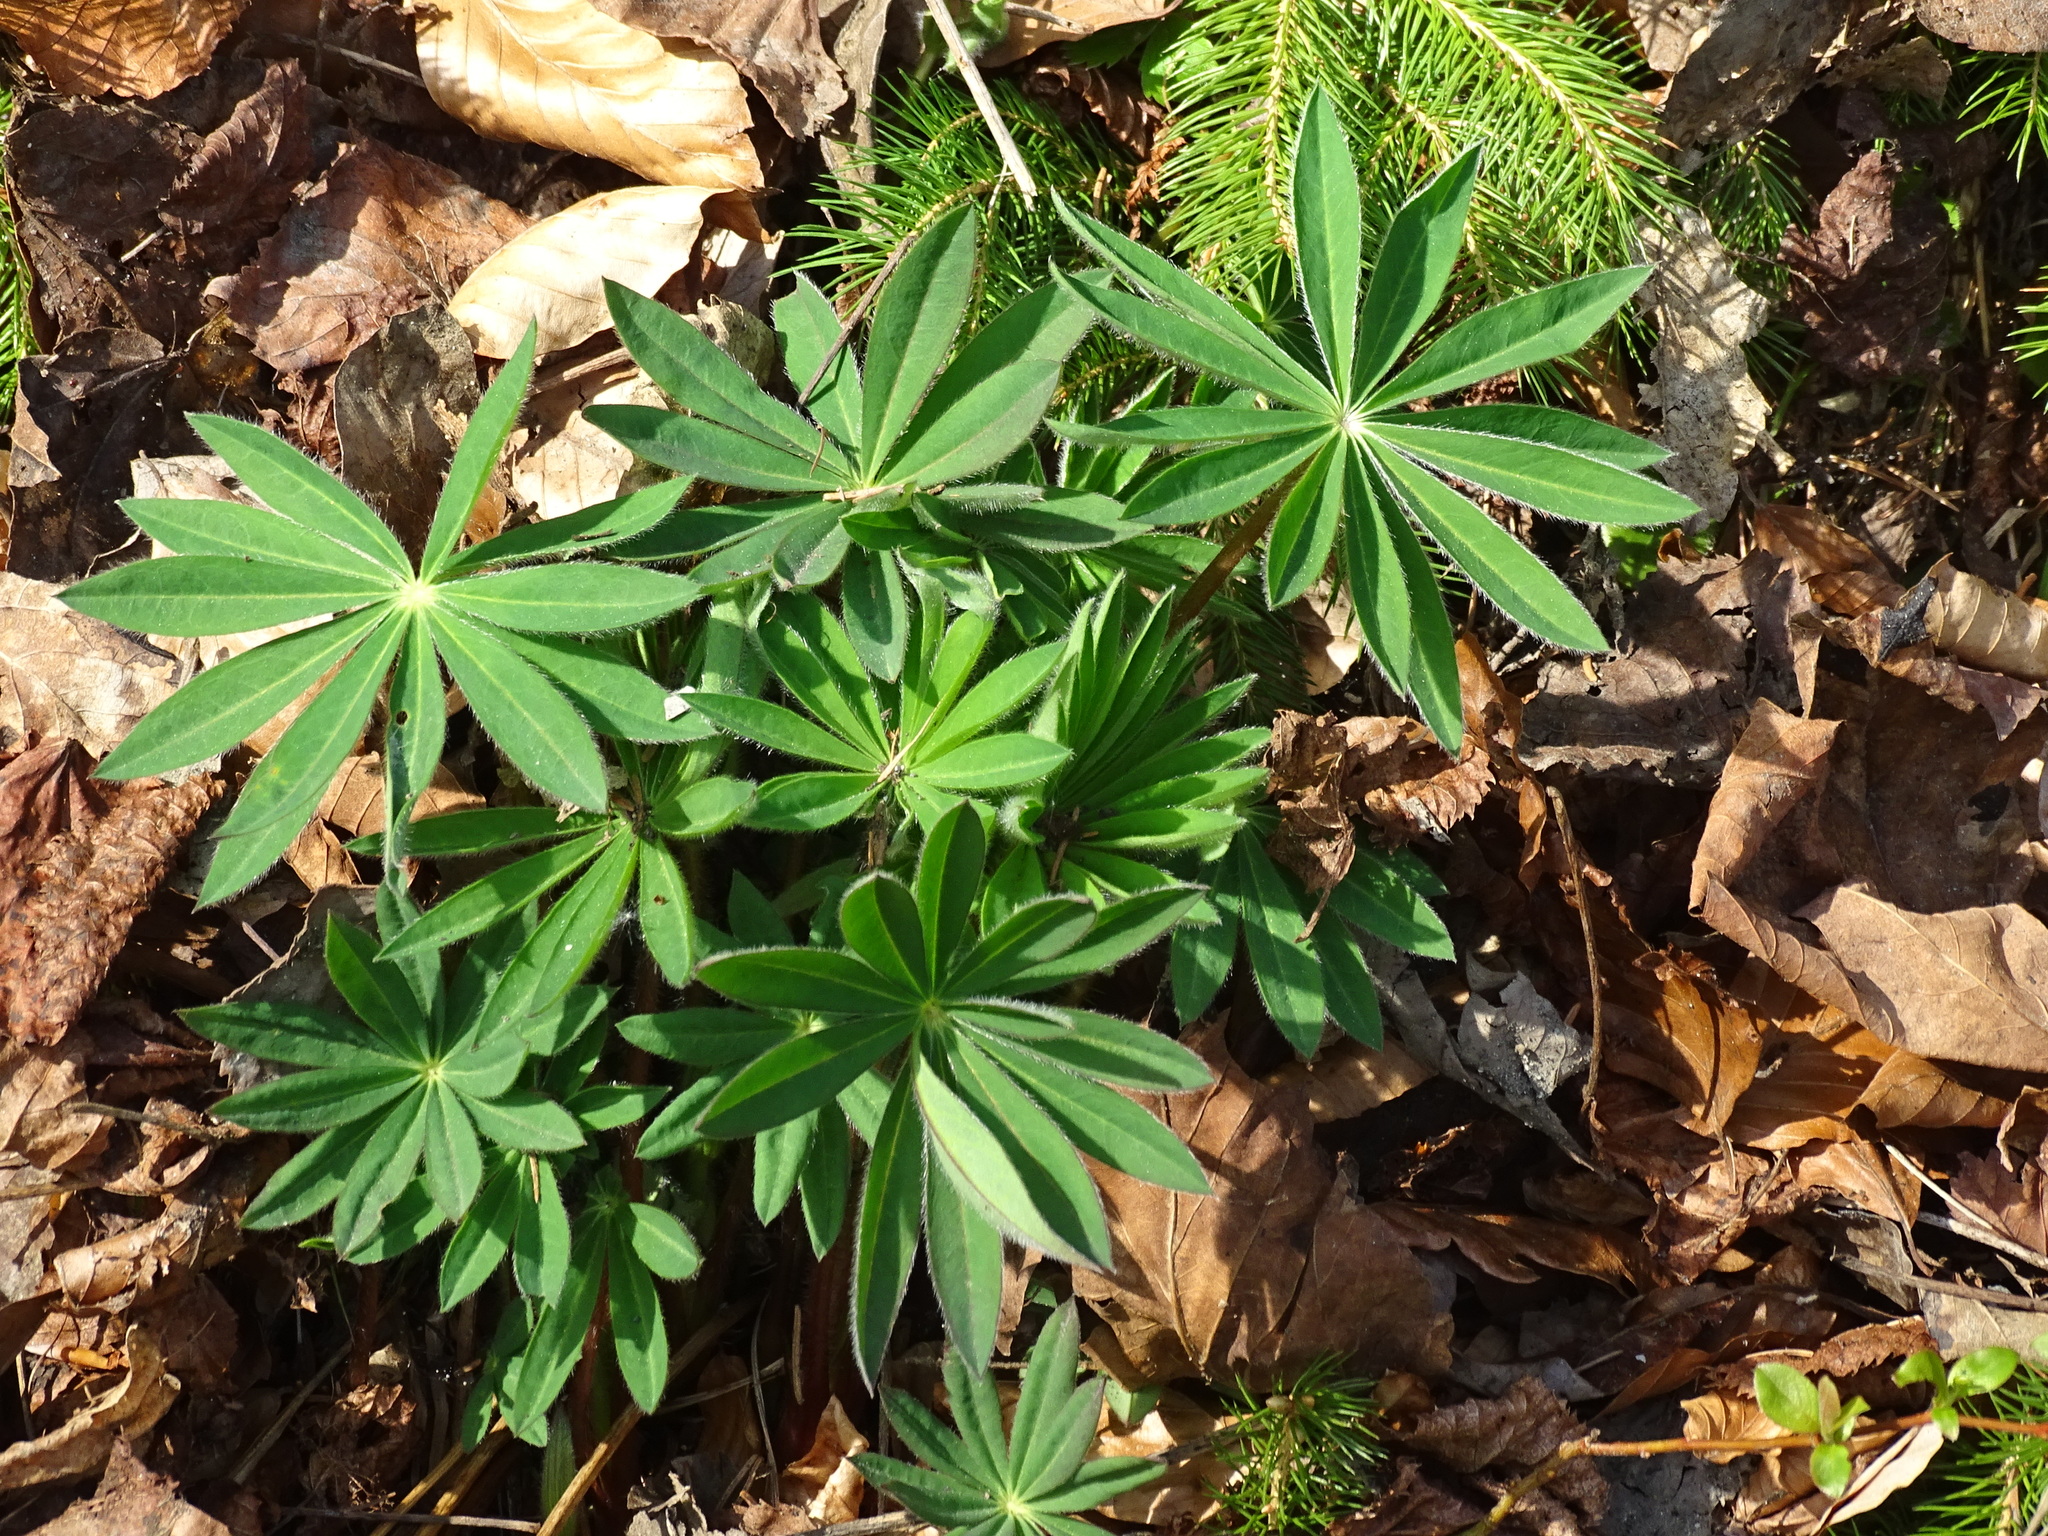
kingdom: Plantae
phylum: Tracheophyta
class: Magnoliopsida
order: Fabales
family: Fabaceae
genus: Lupinus
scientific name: Lupinus polyphyllus
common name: Garden lupin
